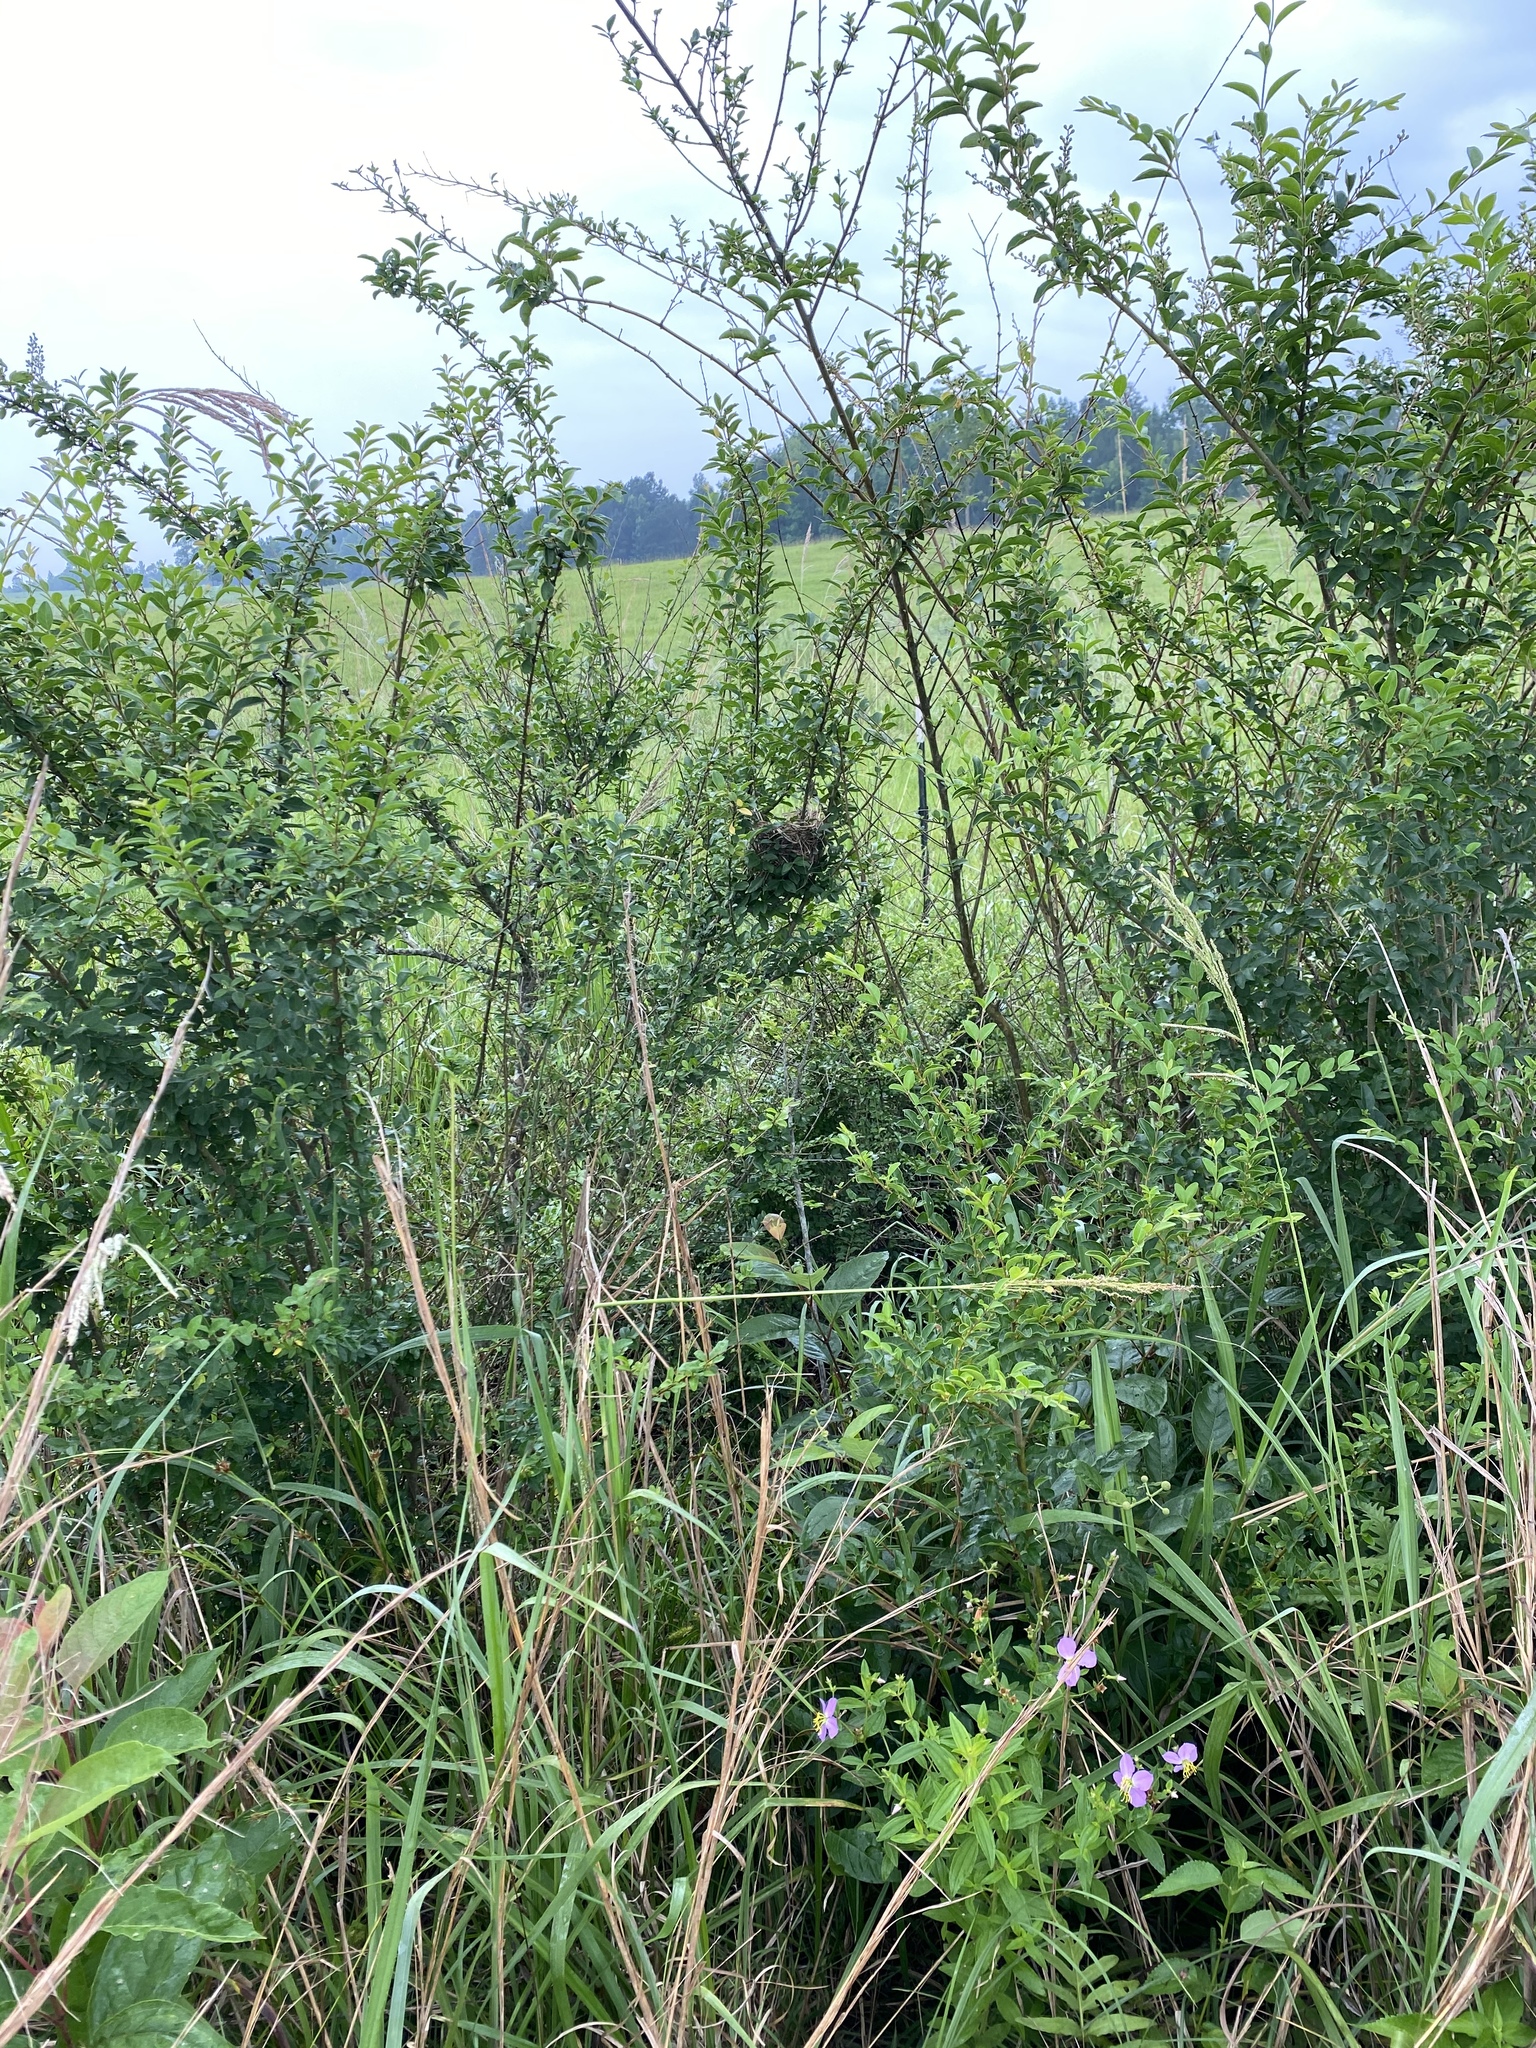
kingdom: Animalia
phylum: Chordata
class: Aves
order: Passeriformes
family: Icteridae
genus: Agelaius
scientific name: Agelaius phoeniceus
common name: Red-winged blackbird
